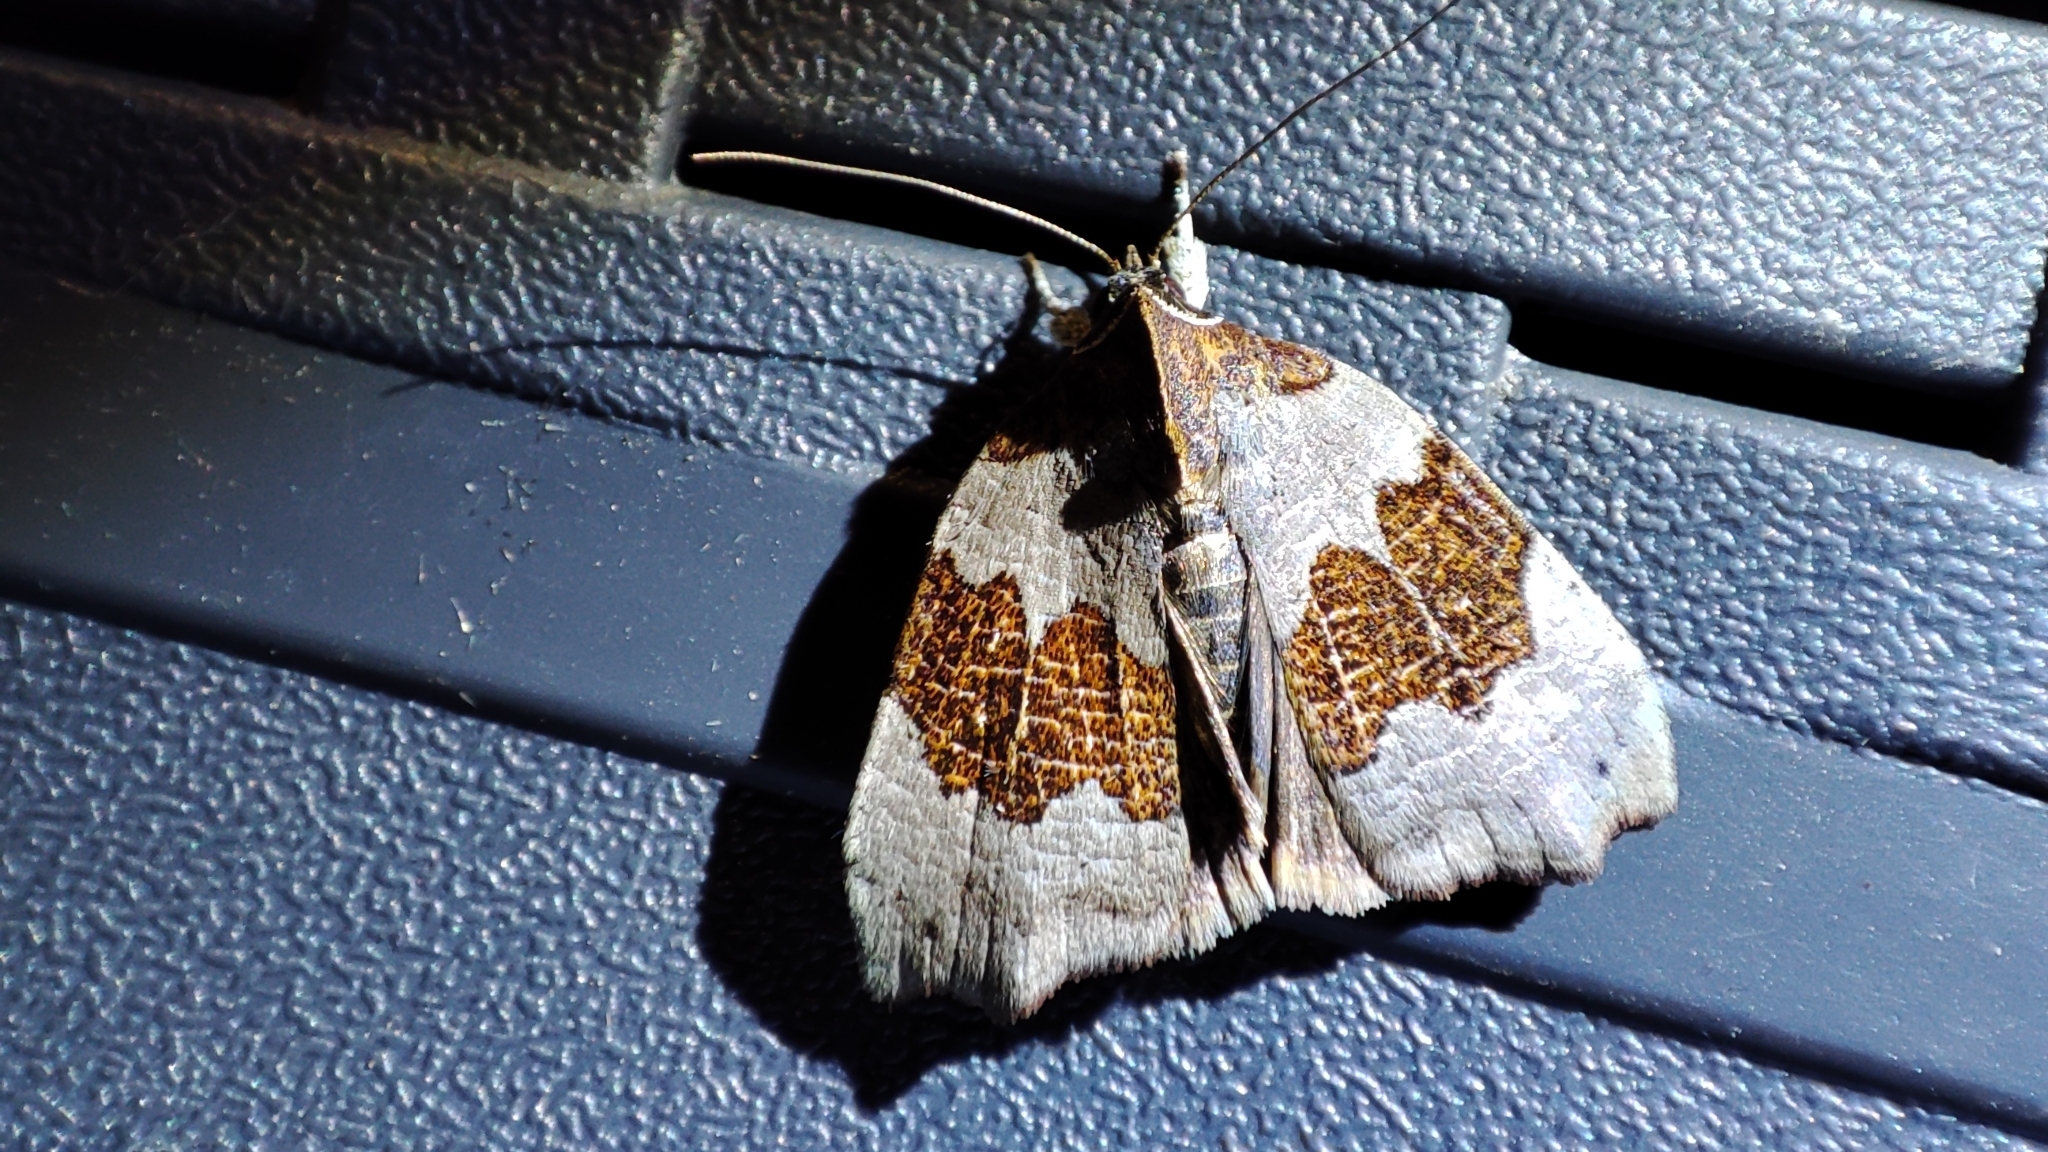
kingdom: Animalia
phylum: Arthropoda
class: Insecta
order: Lepidoptera
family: Nolidae
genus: Acripia
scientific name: Acripia subolivacea
